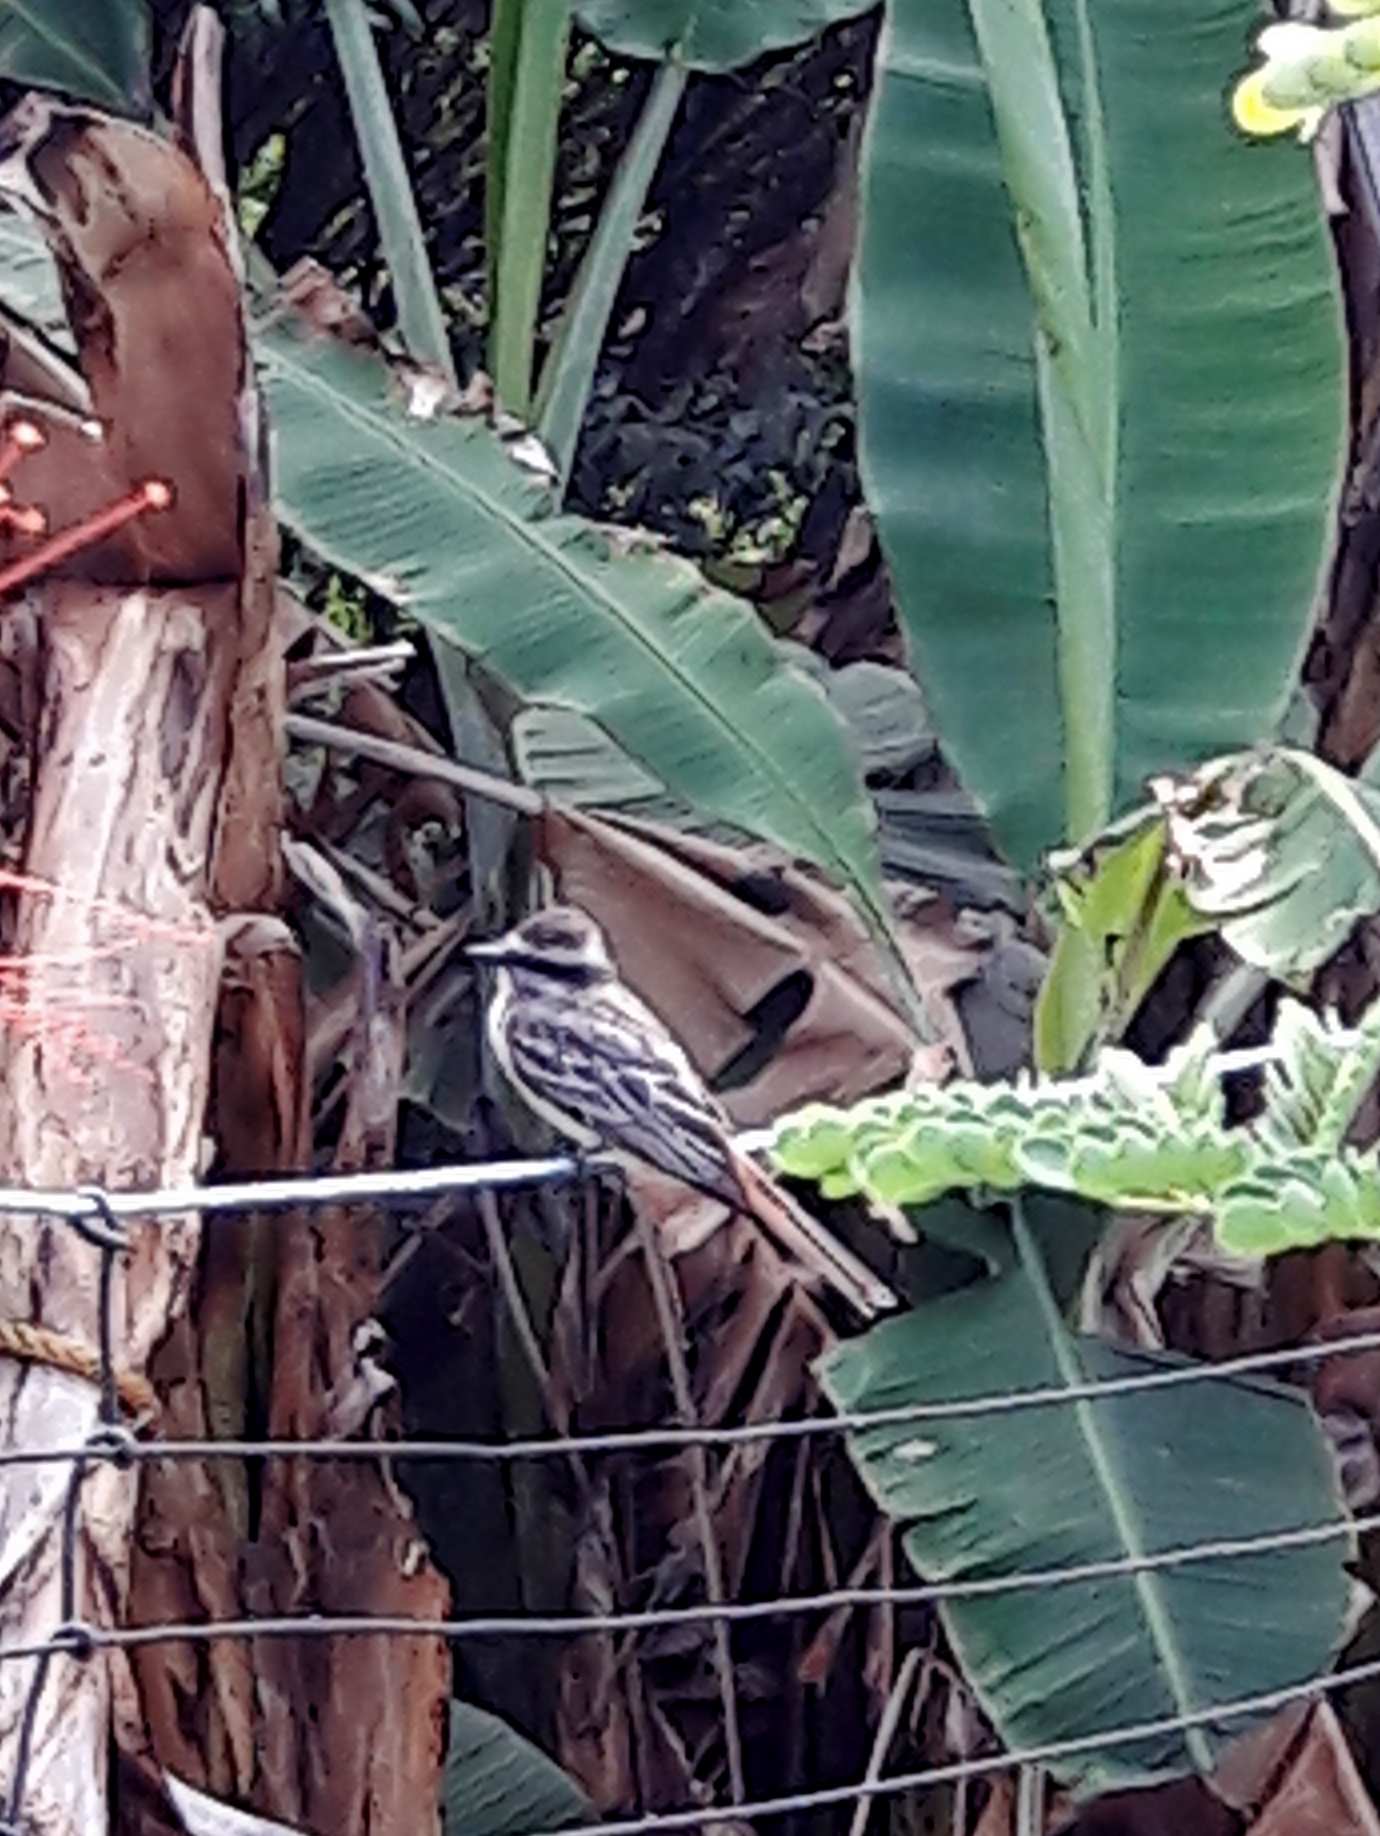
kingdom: Animalia
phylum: Chordata
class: Aves
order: Passeriformes
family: Tyrannidae
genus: Myiodynastes
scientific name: Myiodynastes maculatus
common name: Streaked flycatcher
